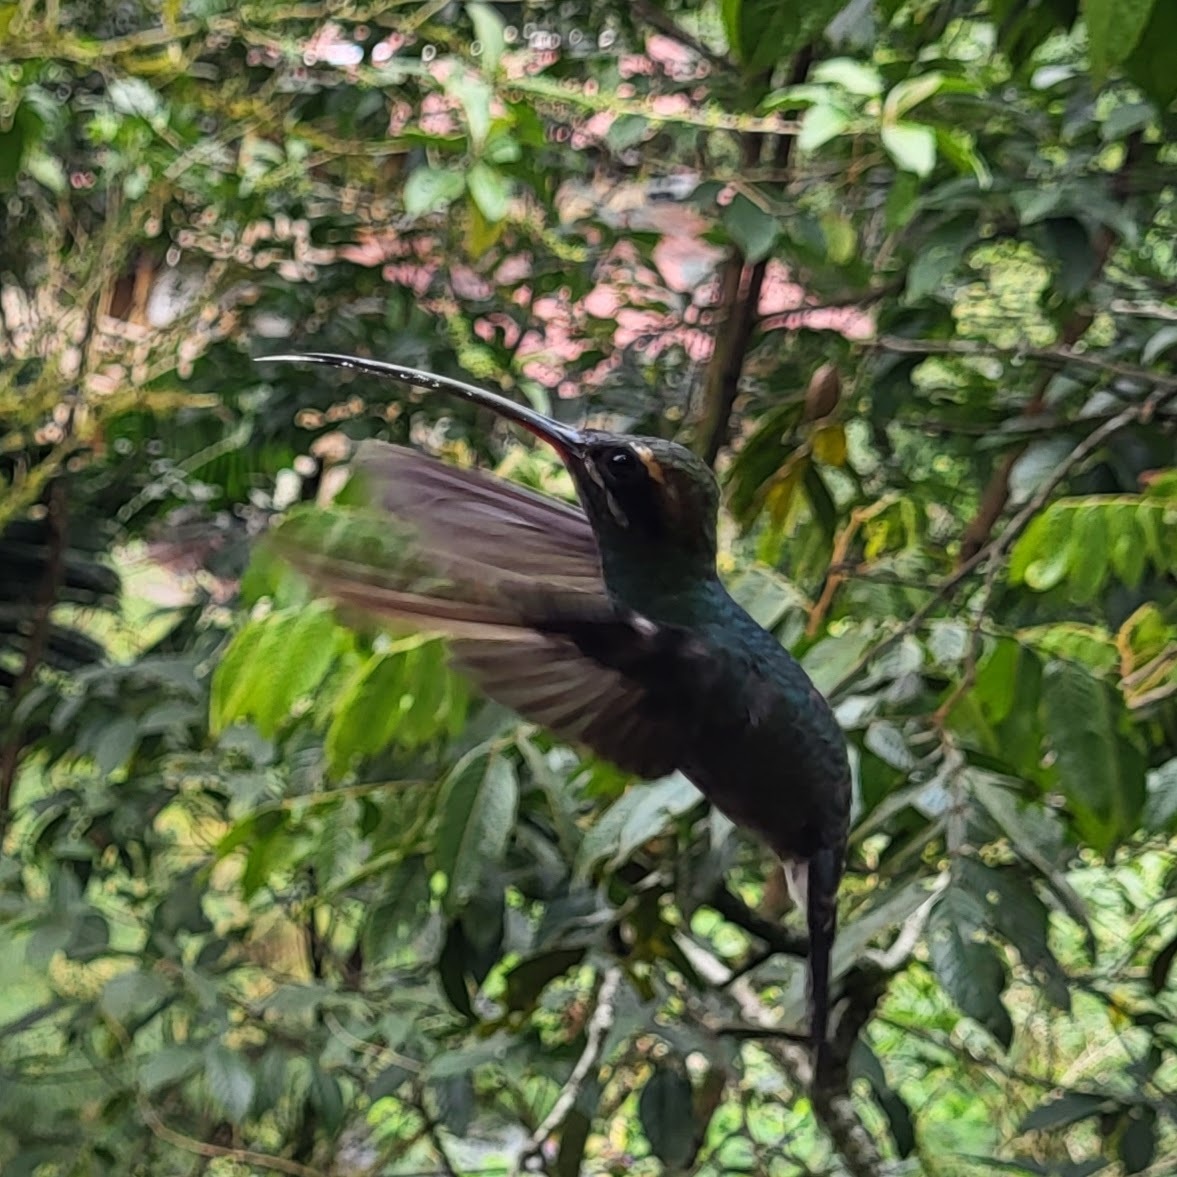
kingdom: Animalia
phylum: Chordata
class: Aves
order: Apodiformes
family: Trochilidae
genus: Phaethornis
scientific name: Phaethornis yaruqui
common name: White-whiskered hermit
